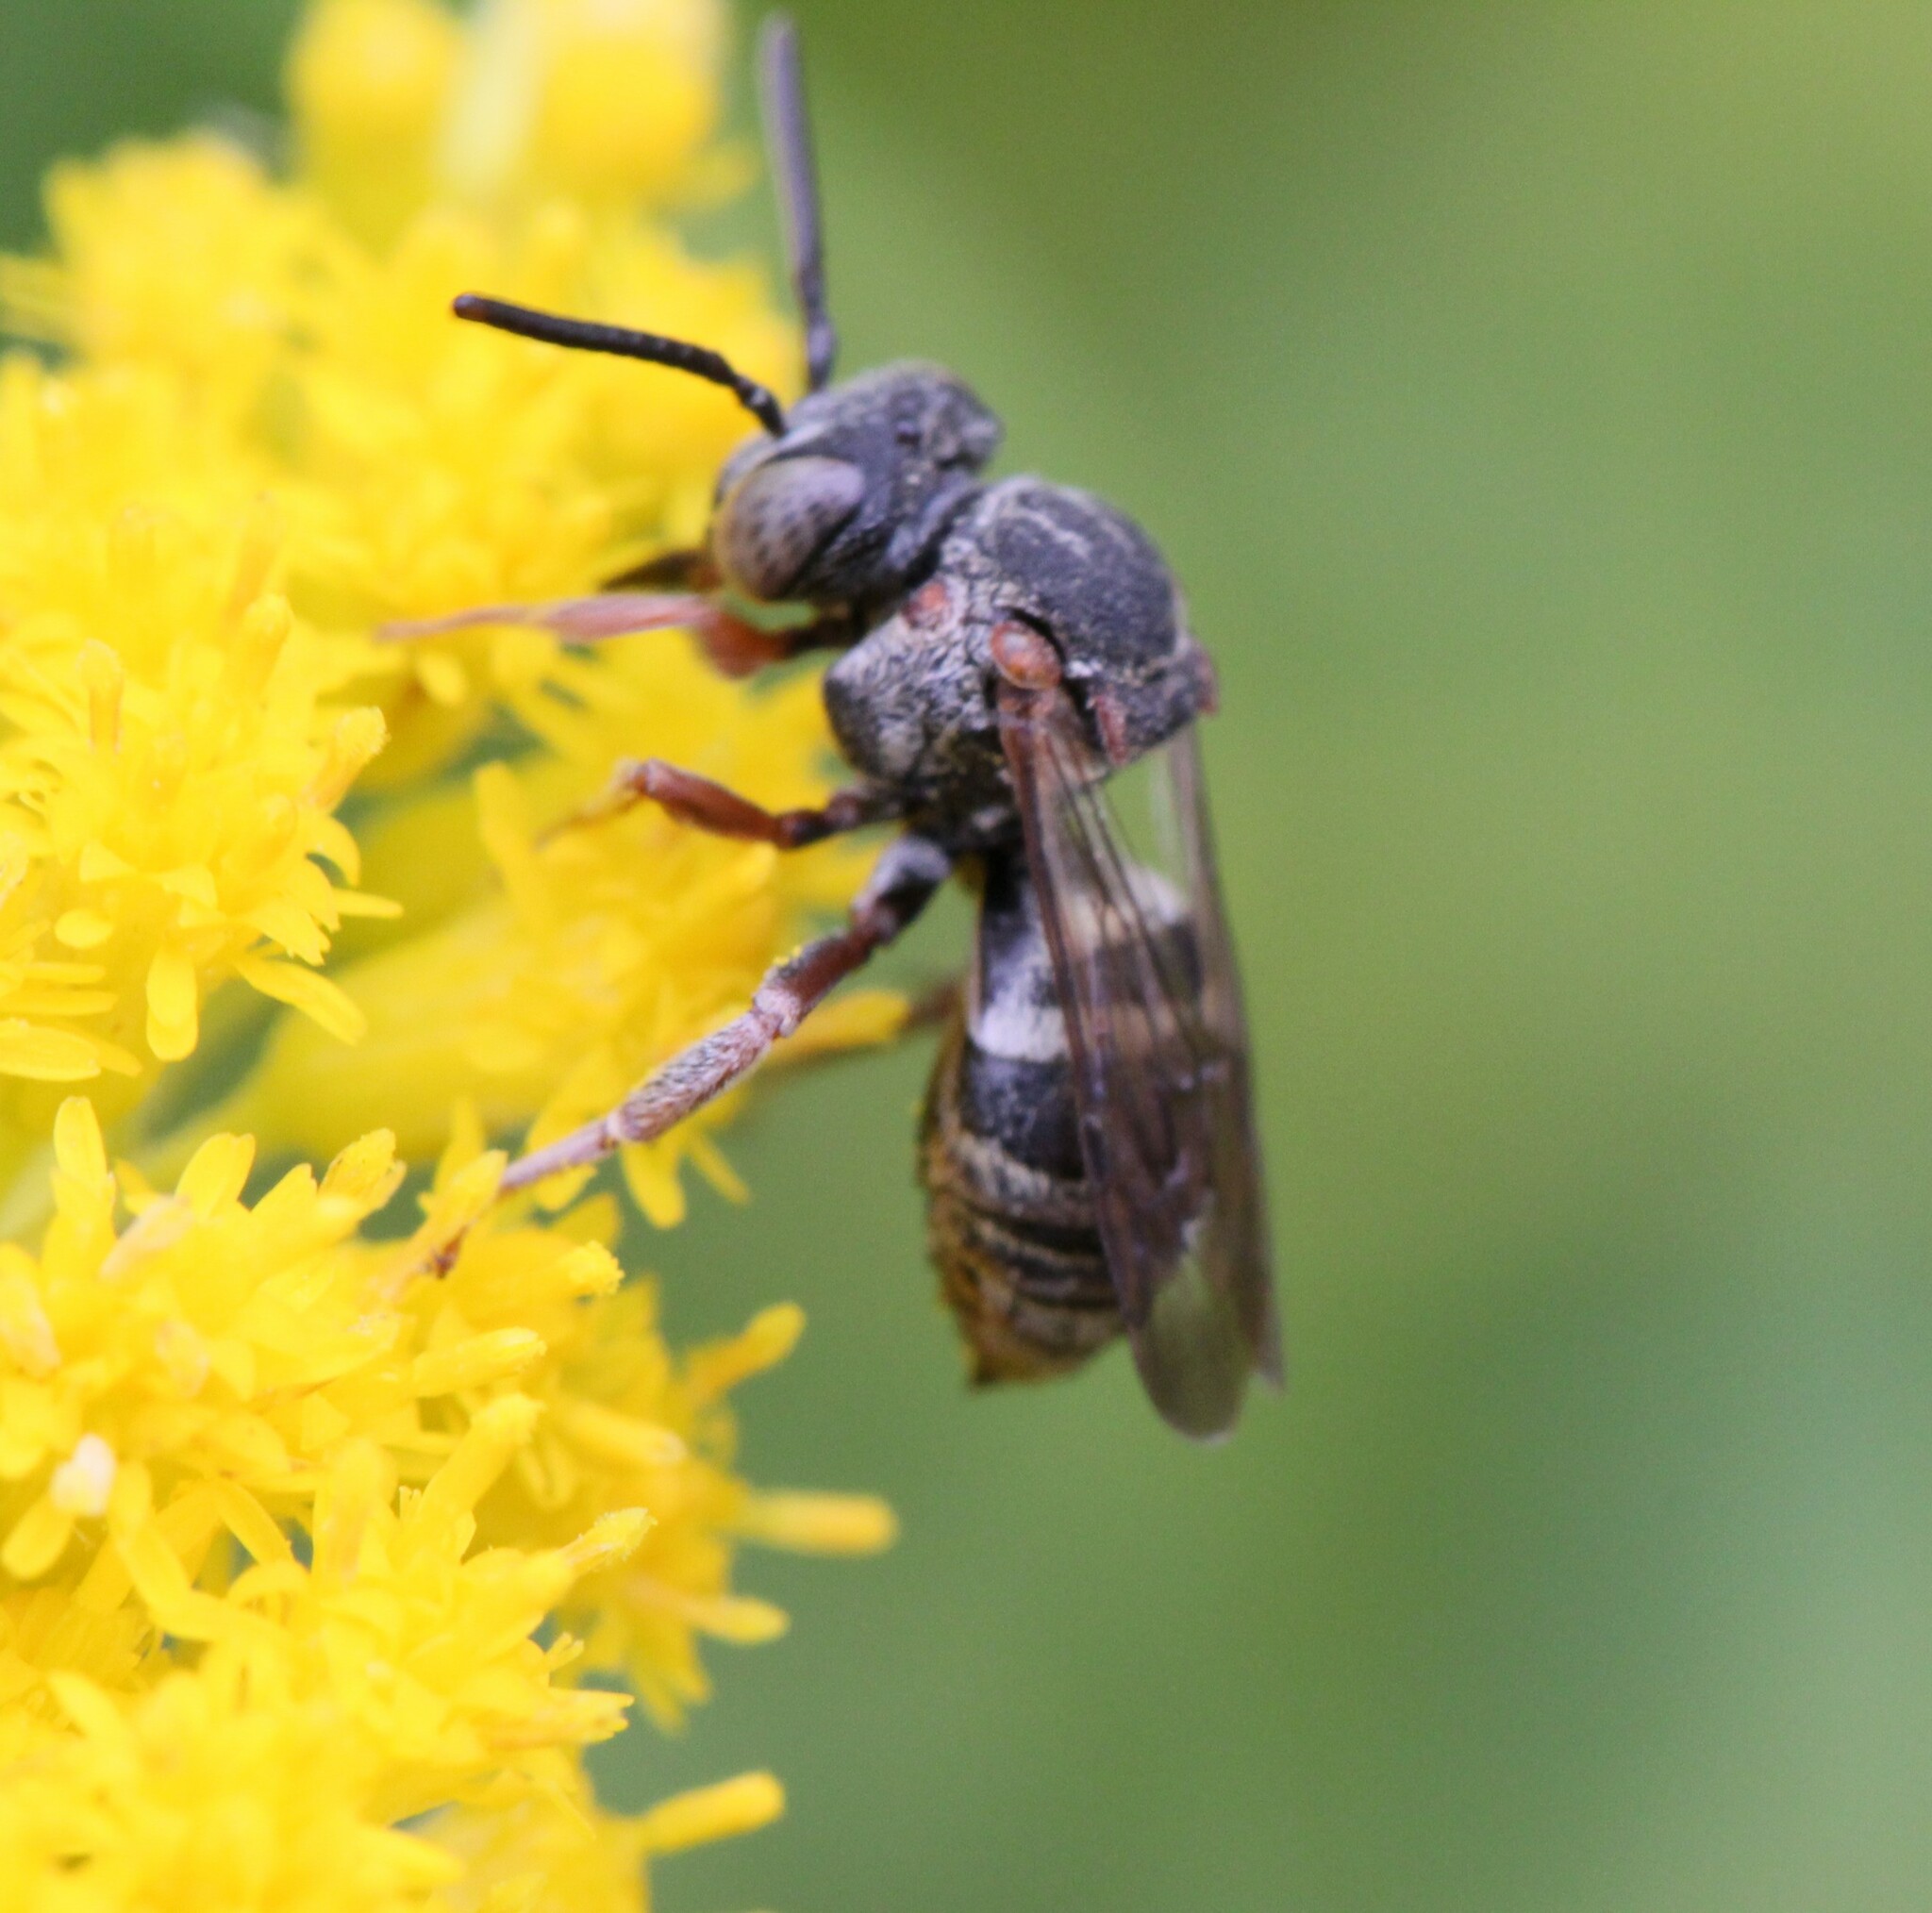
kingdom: Animalia
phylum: Arthropoda
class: Insecta
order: Hymenoptera
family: Apidae
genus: Epeolus
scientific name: Epeolus scutellaris
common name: Notch-backed cellophane-cuckoo bee
